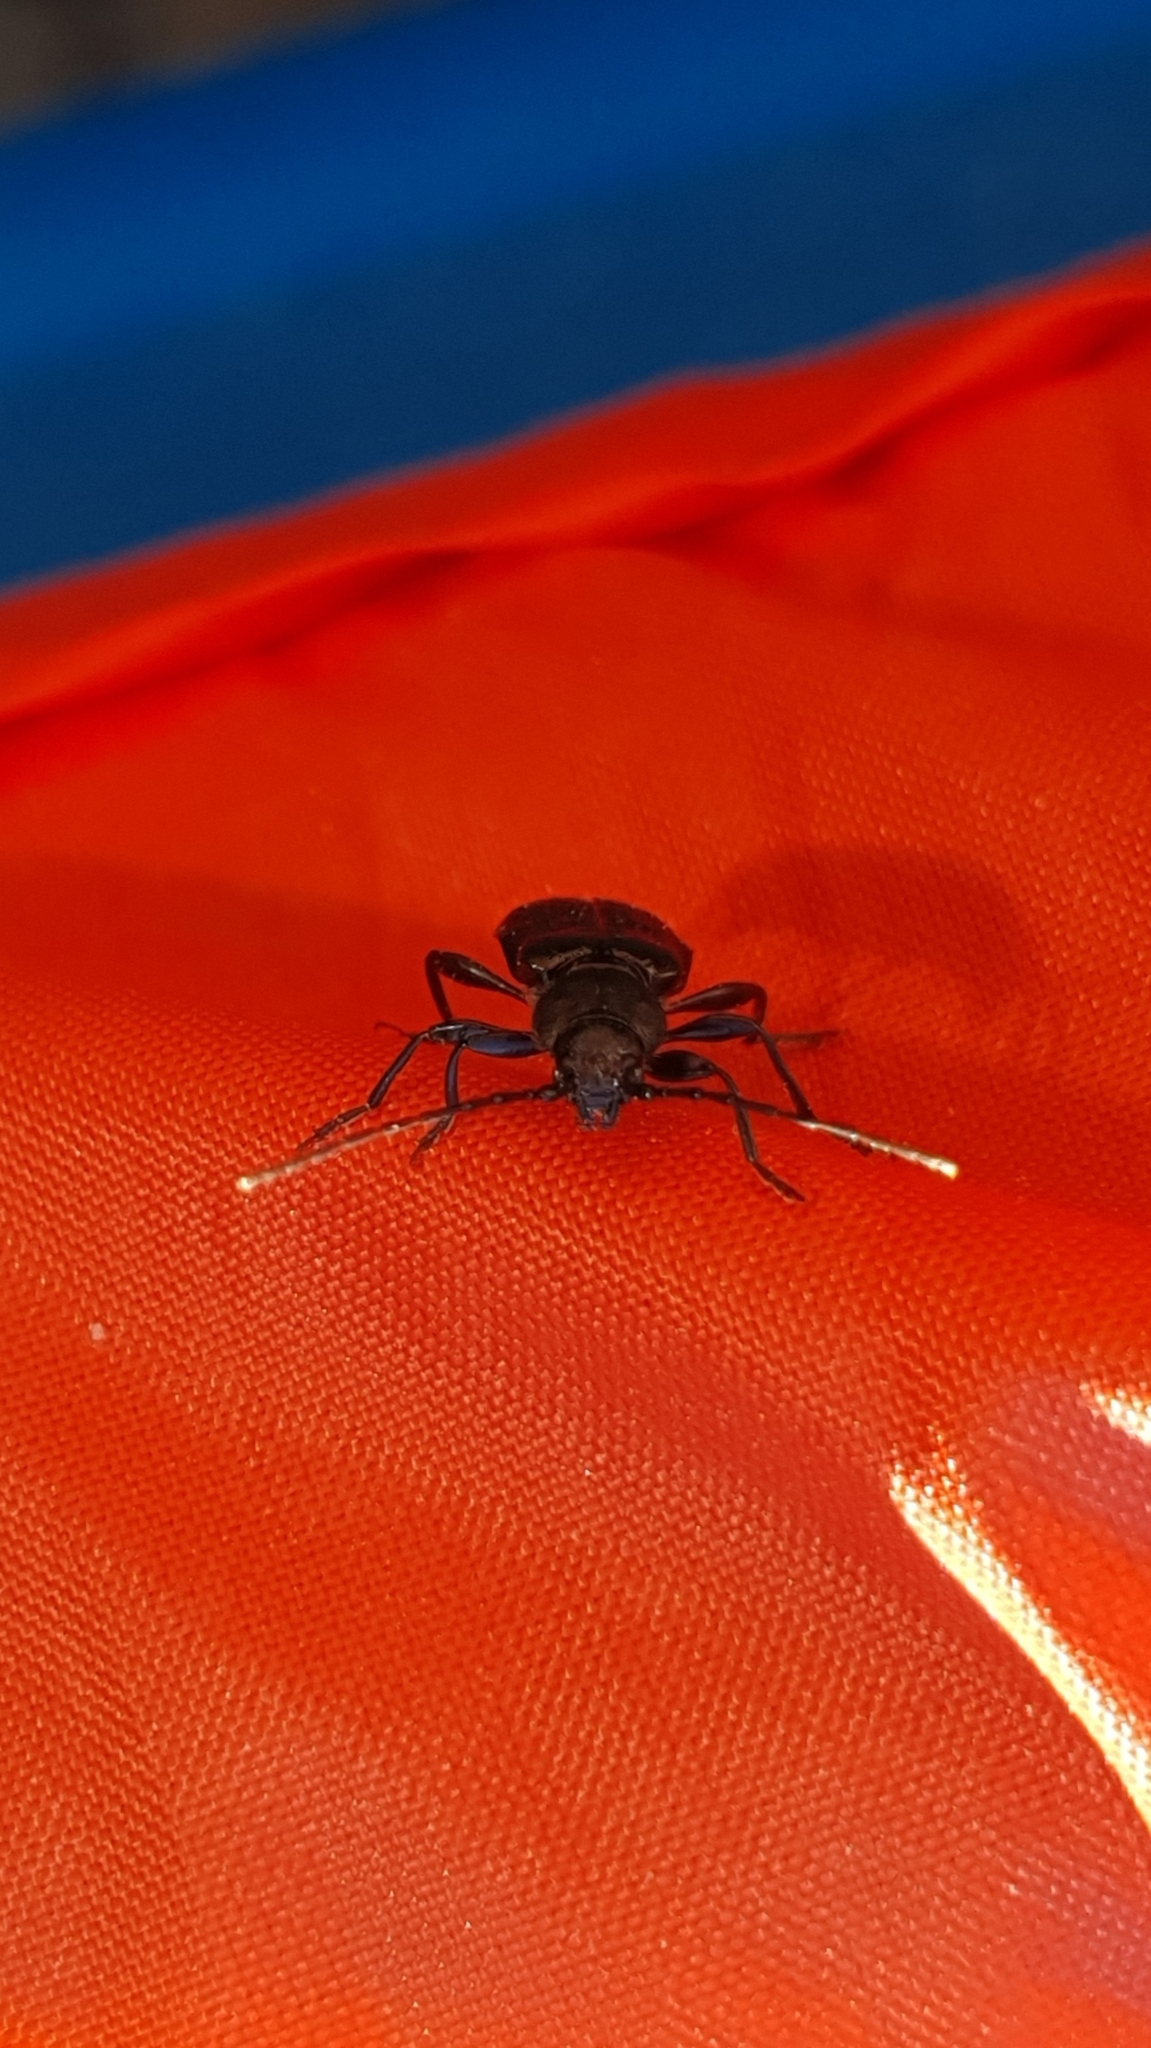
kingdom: Animalia
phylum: Arthropoda
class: Insecta
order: Coleoptera
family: Cerambycidae
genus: Callidium
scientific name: Callidium aeneum
